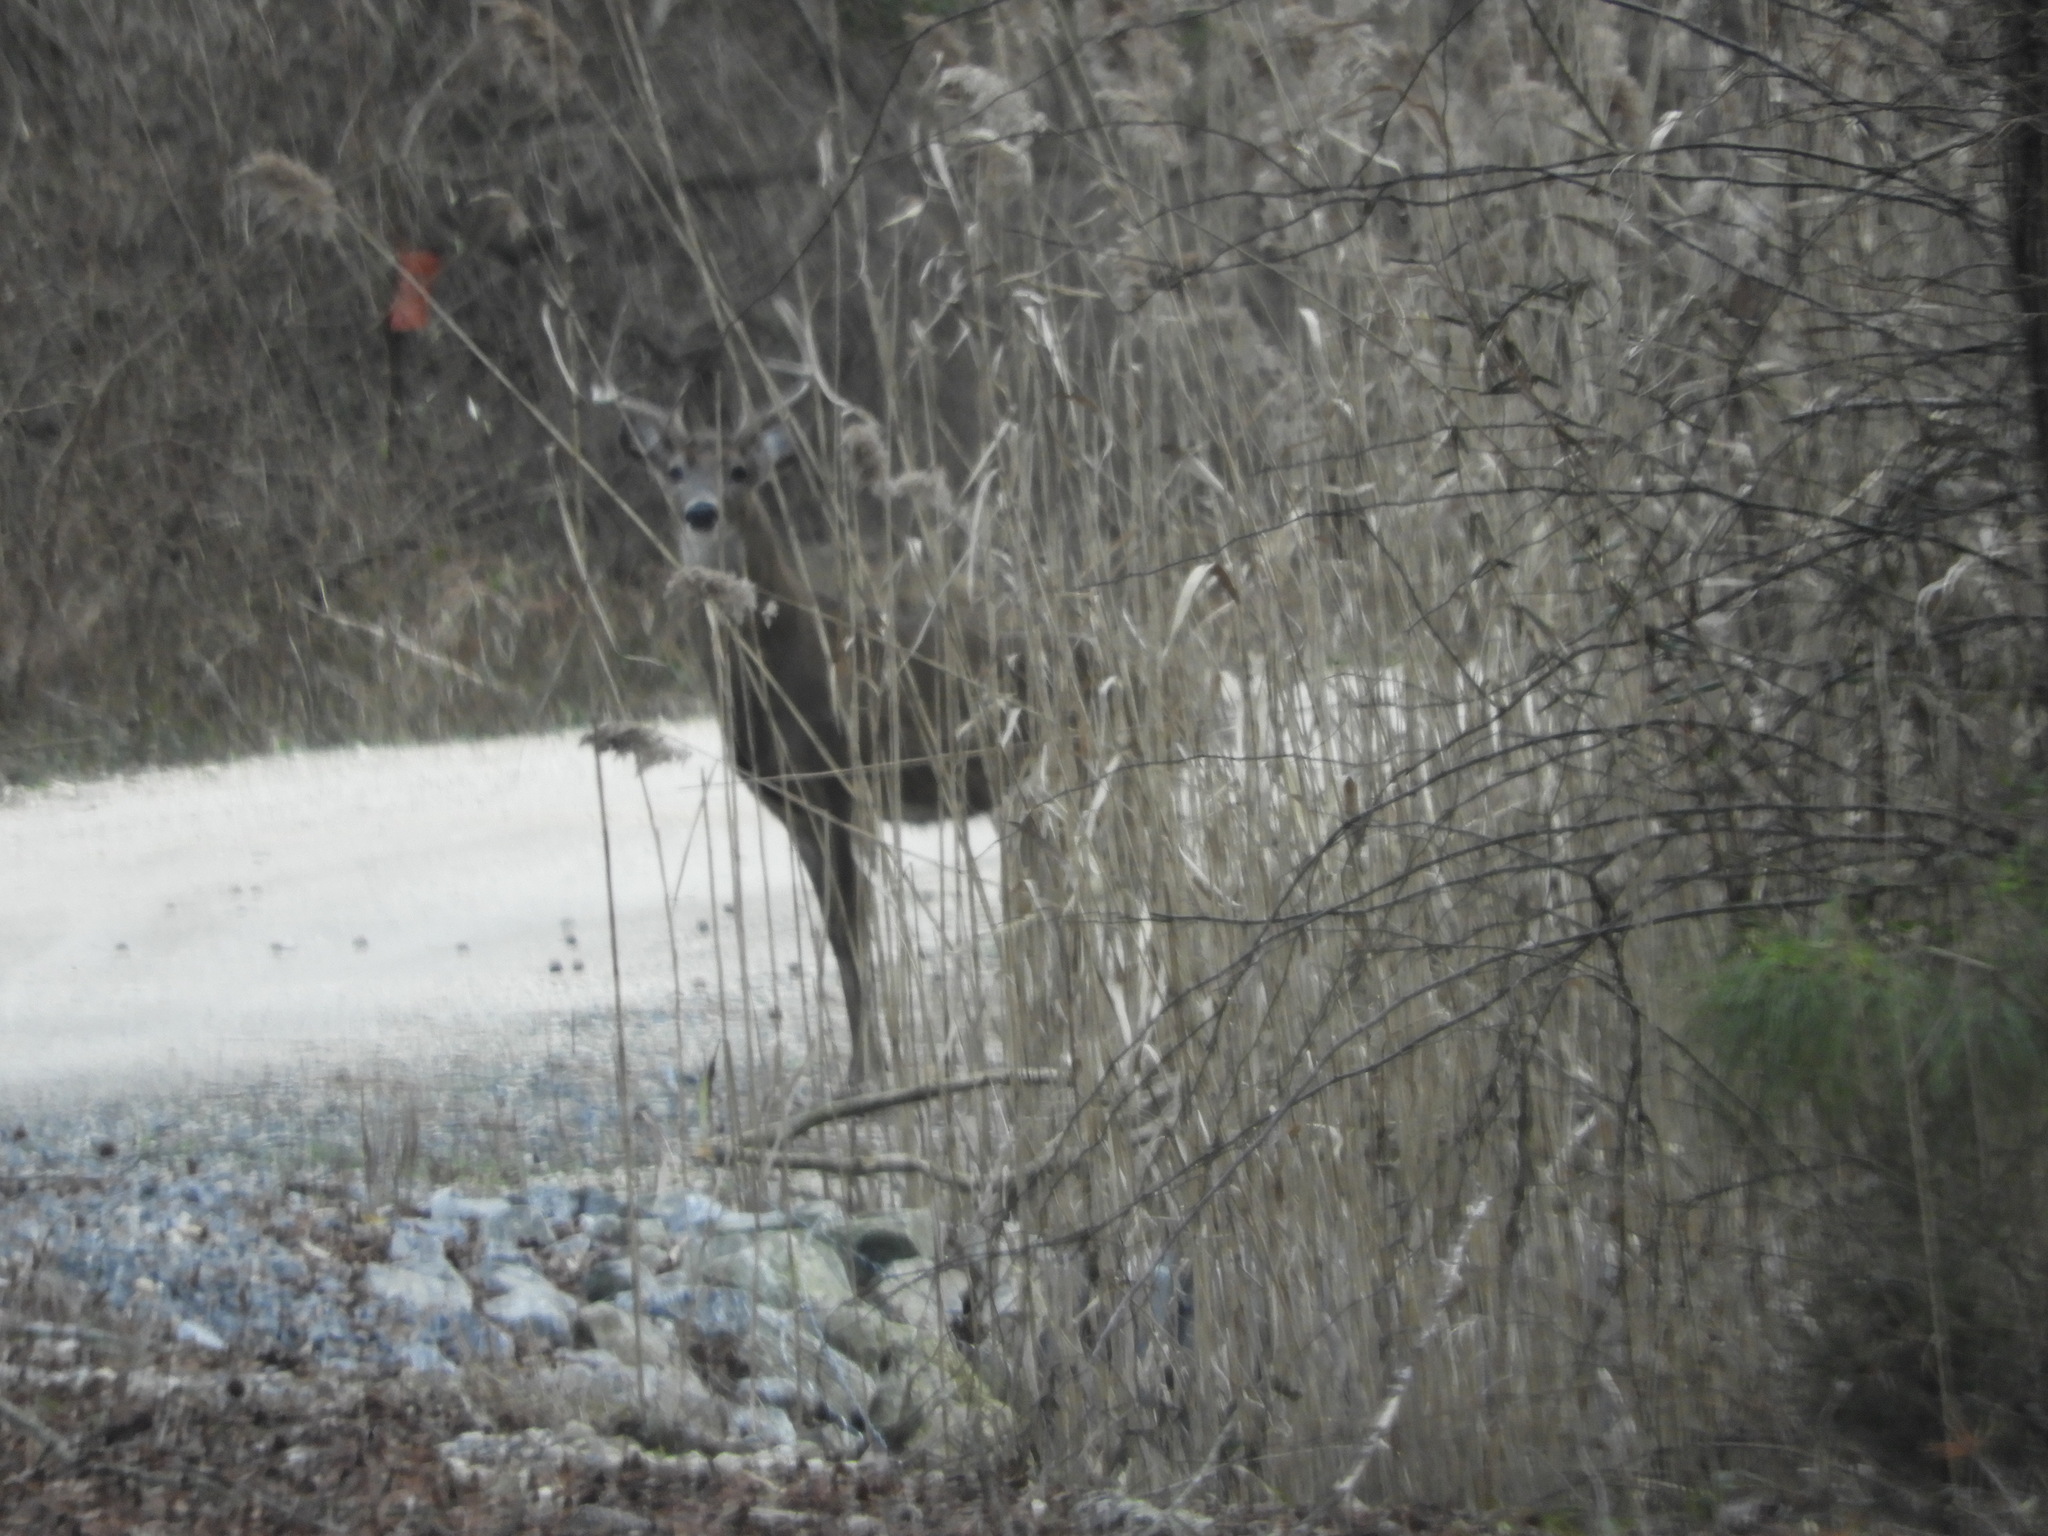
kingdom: Animalia
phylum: Chordata
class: Mammalia
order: Artiodactyla
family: Cervidae
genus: Odocoileus
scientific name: Odocoileus virginianus
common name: White-tailed deer
